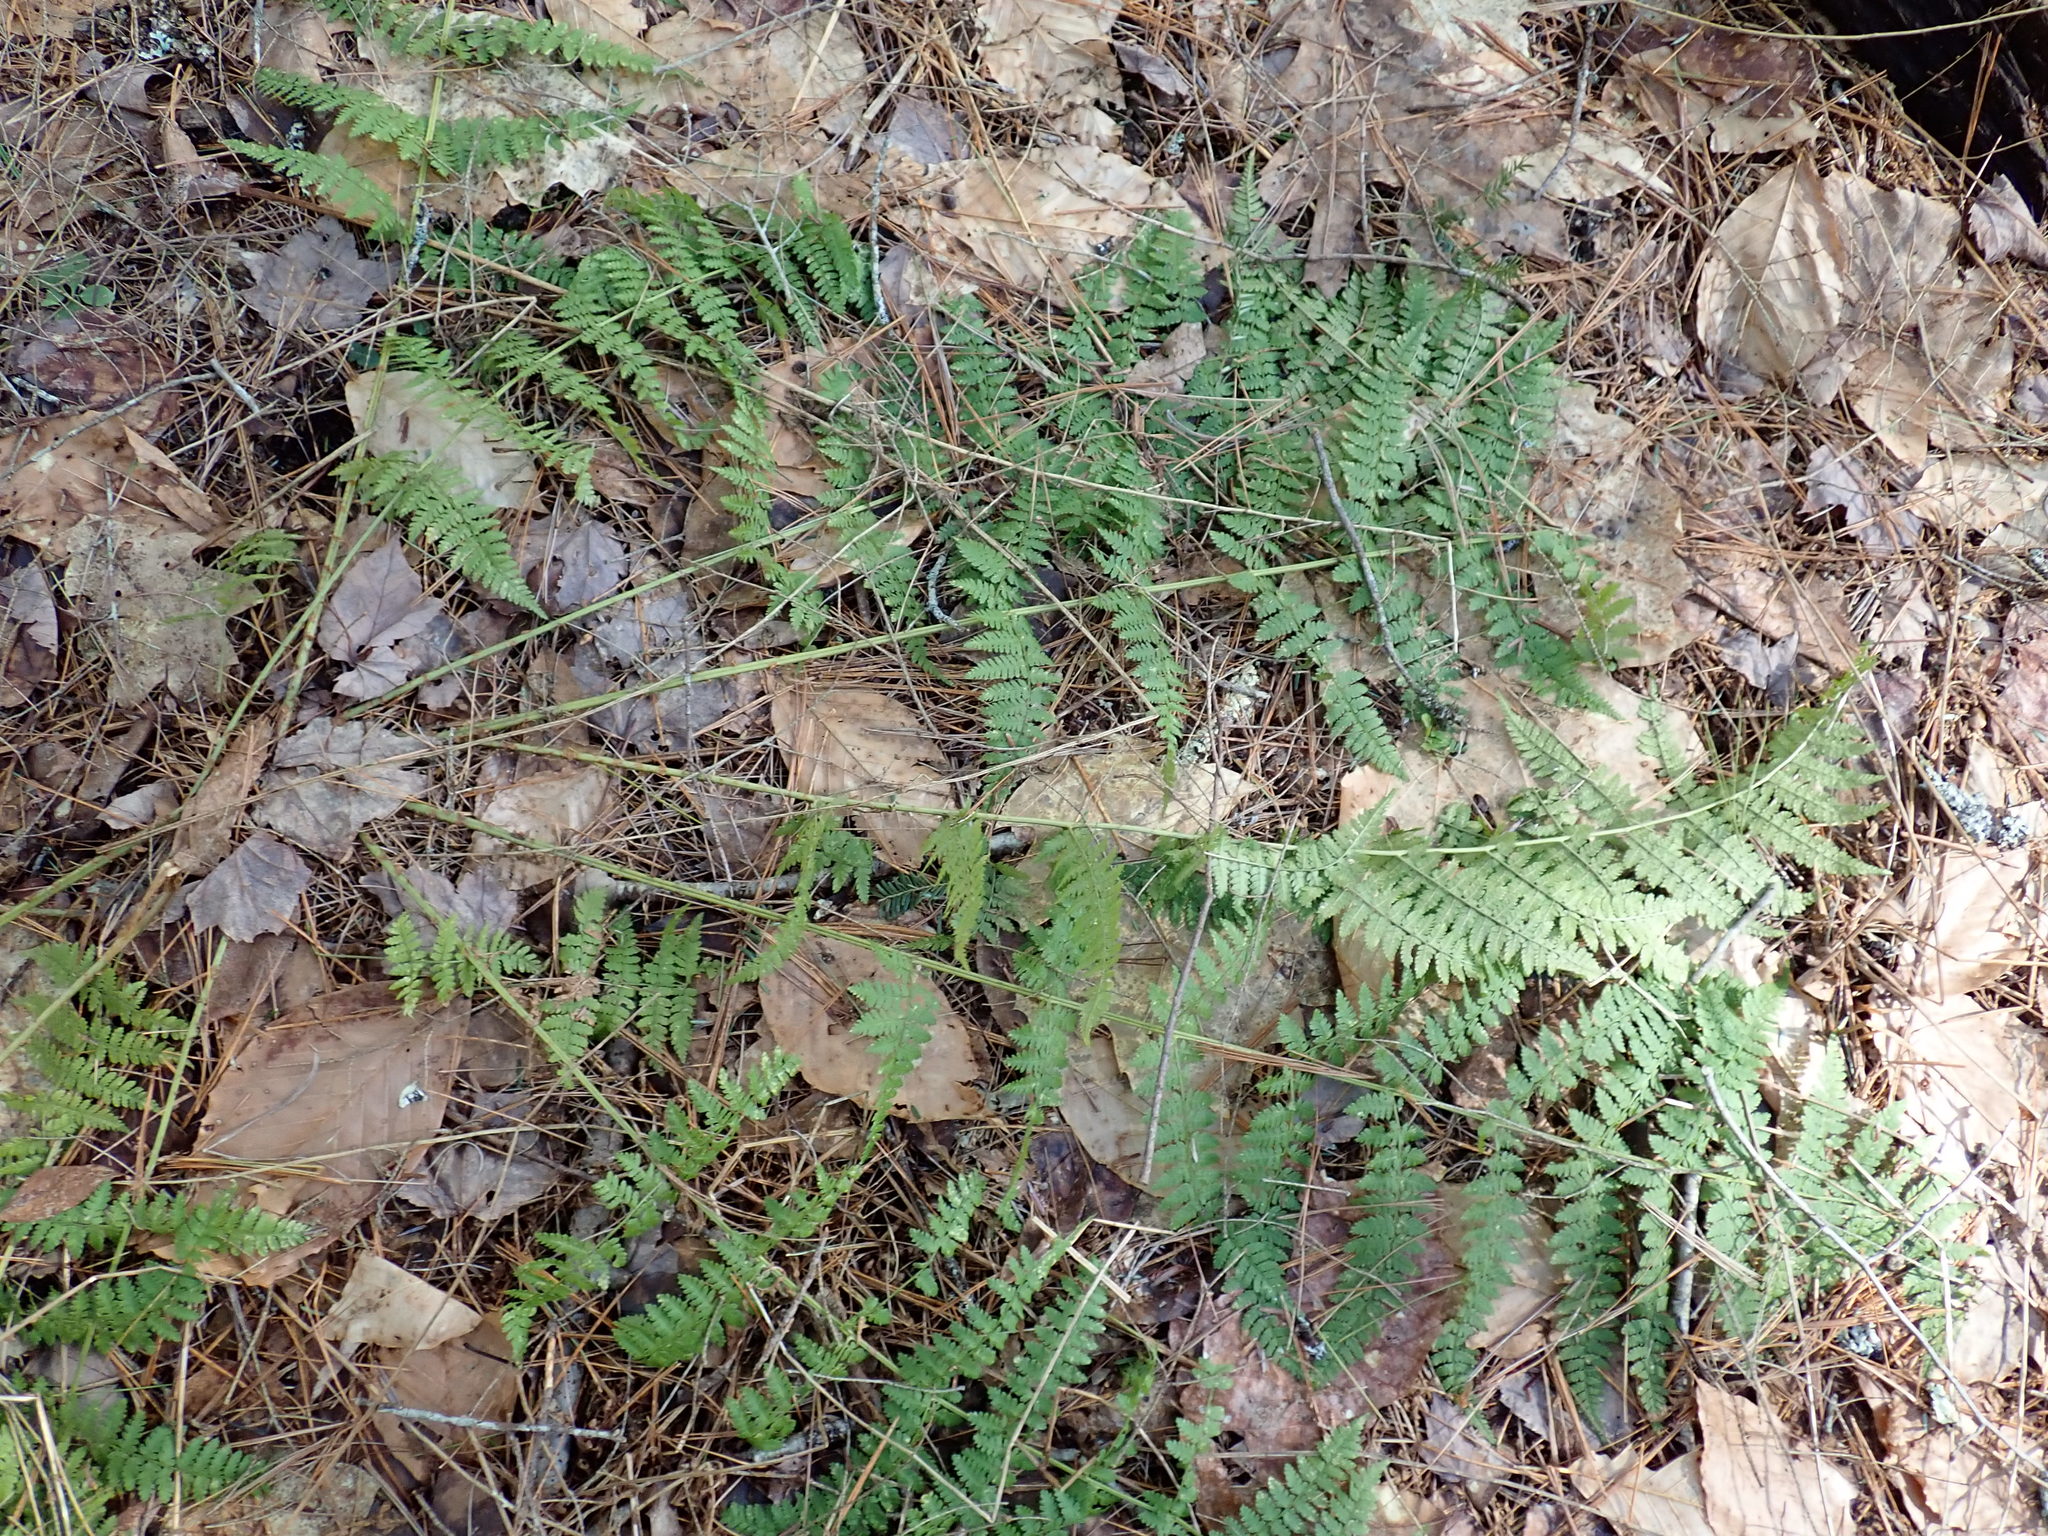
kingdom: Plantae
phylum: Tracheophyta
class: Polypodiopsida
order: Polypodiales
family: Dryopteridaceae
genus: Dryopteris
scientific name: Dryopteris intermedia
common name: Evergreen wood fern
